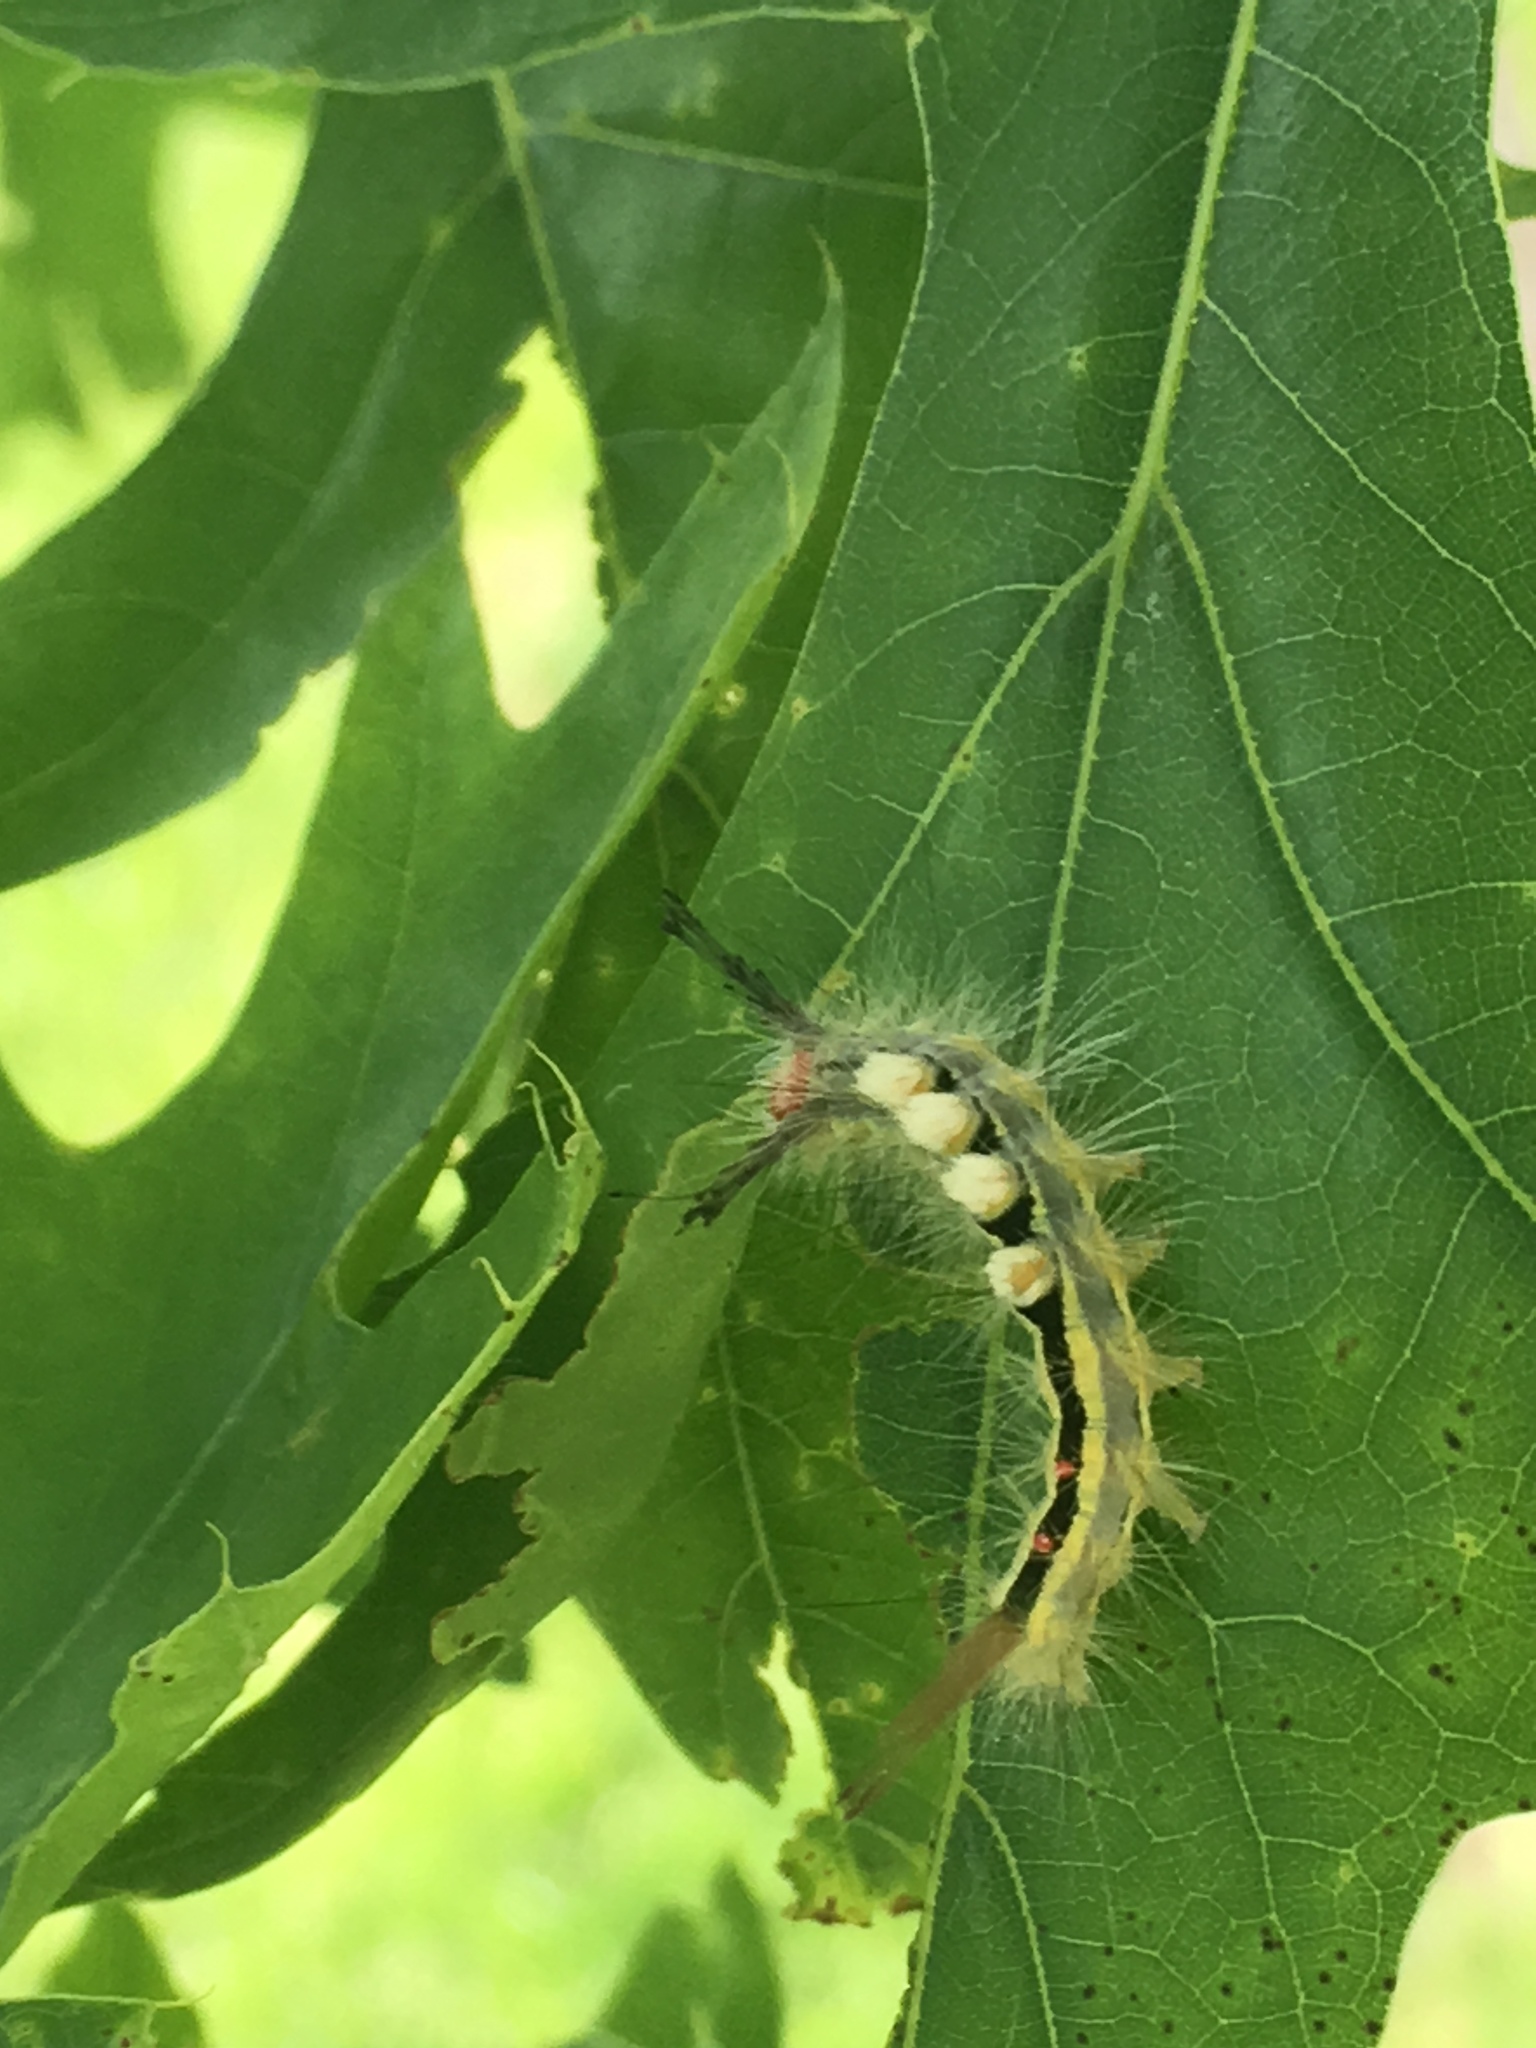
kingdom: Animalia
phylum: Arthropoda
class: Insecta
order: Lepidoptera
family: Erebidae
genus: Orgyia
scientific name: Orgyia leucostigma
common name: White-marked tussock moth
